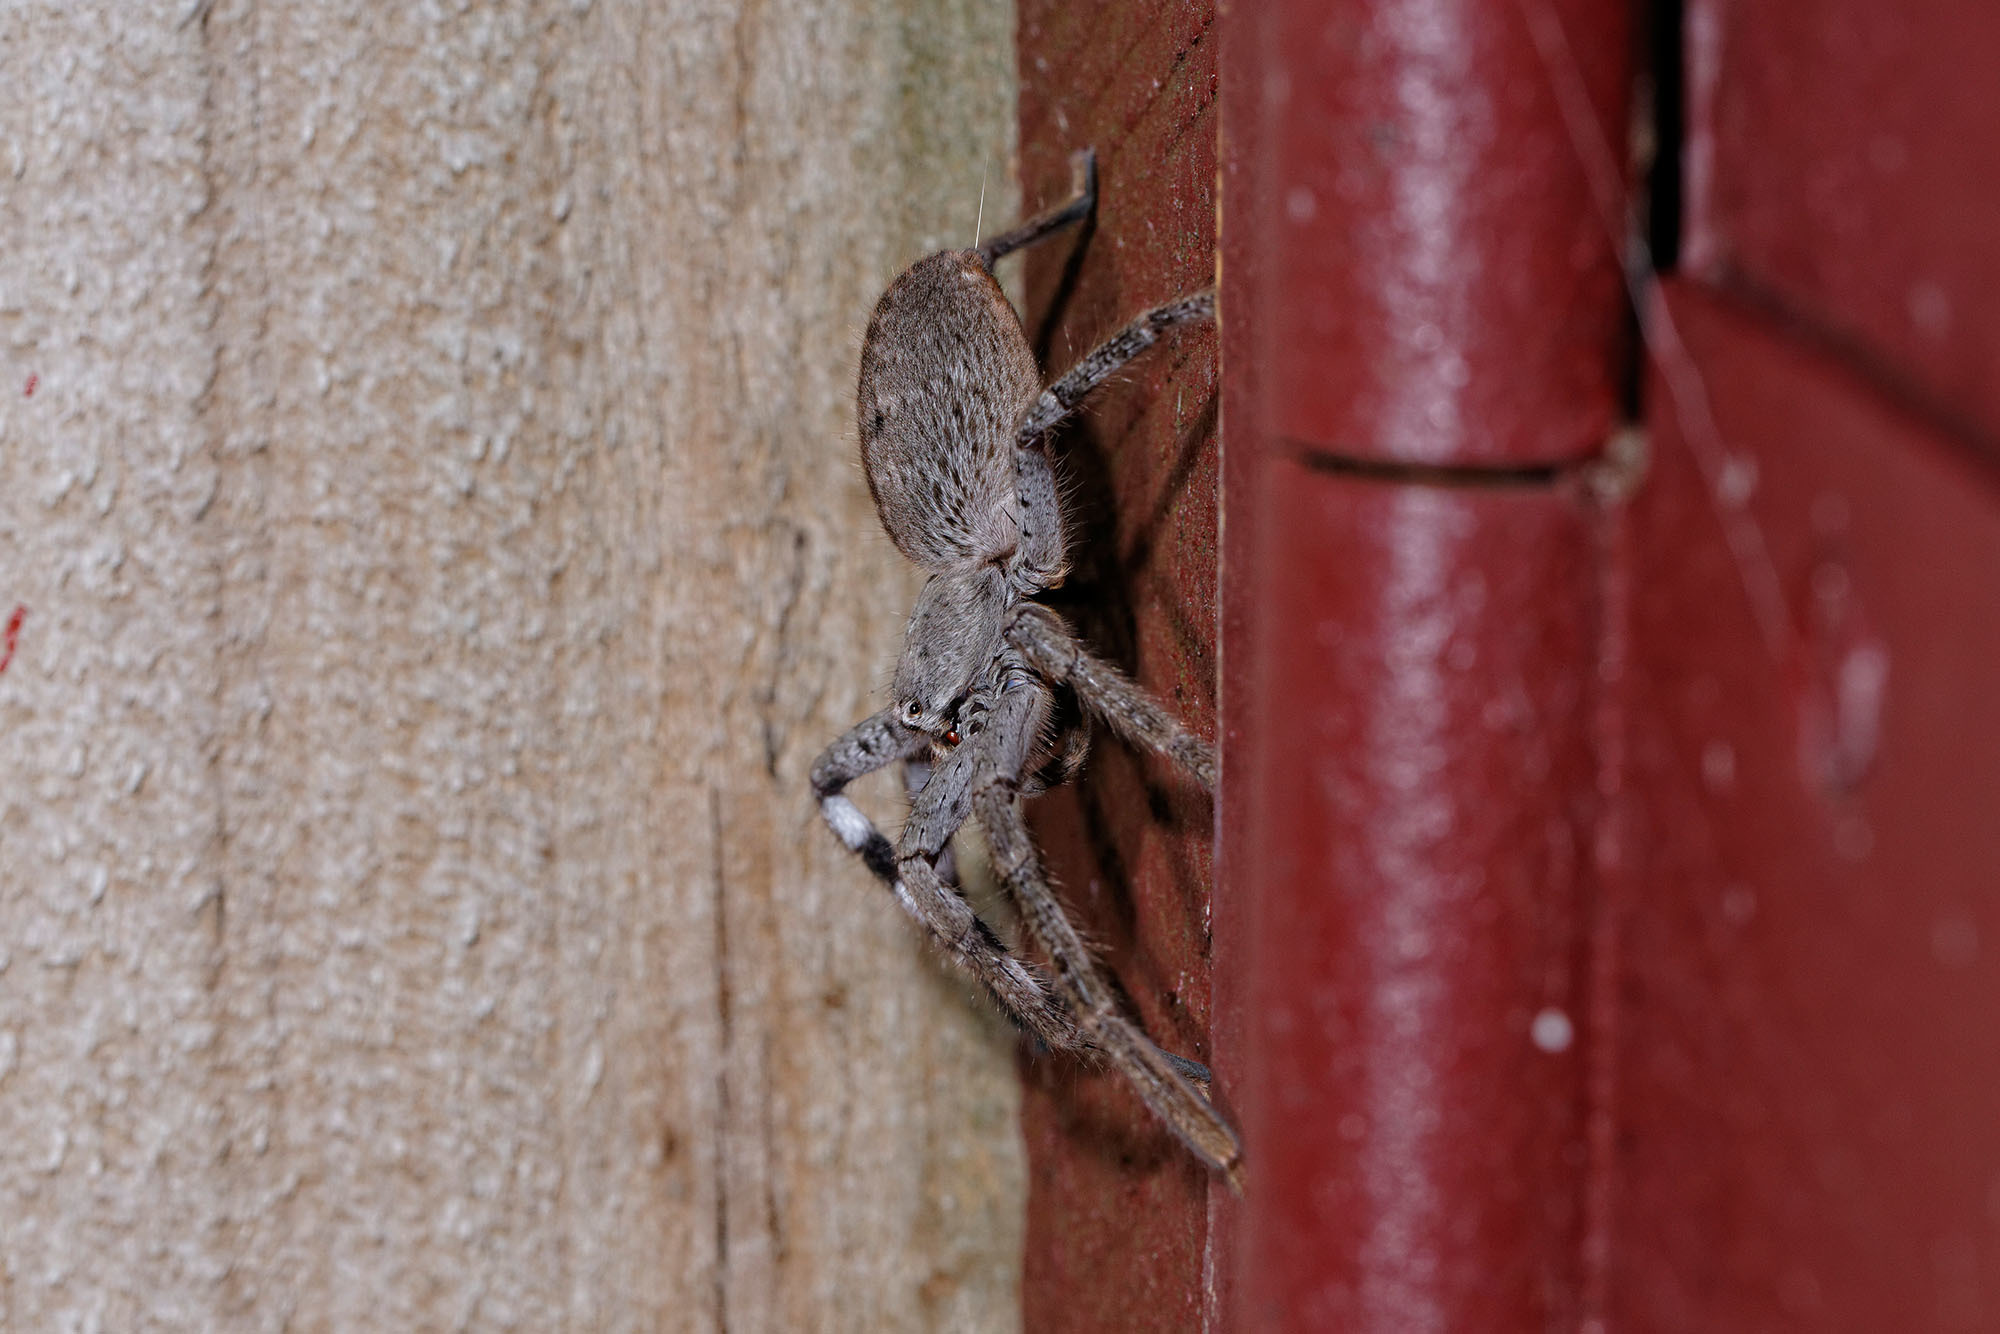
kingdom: Animalia
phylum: Arthropoda
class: Arachnida
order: Araneae
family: Sparassidae
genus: Isopedella
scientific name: Isopedella victorialis
